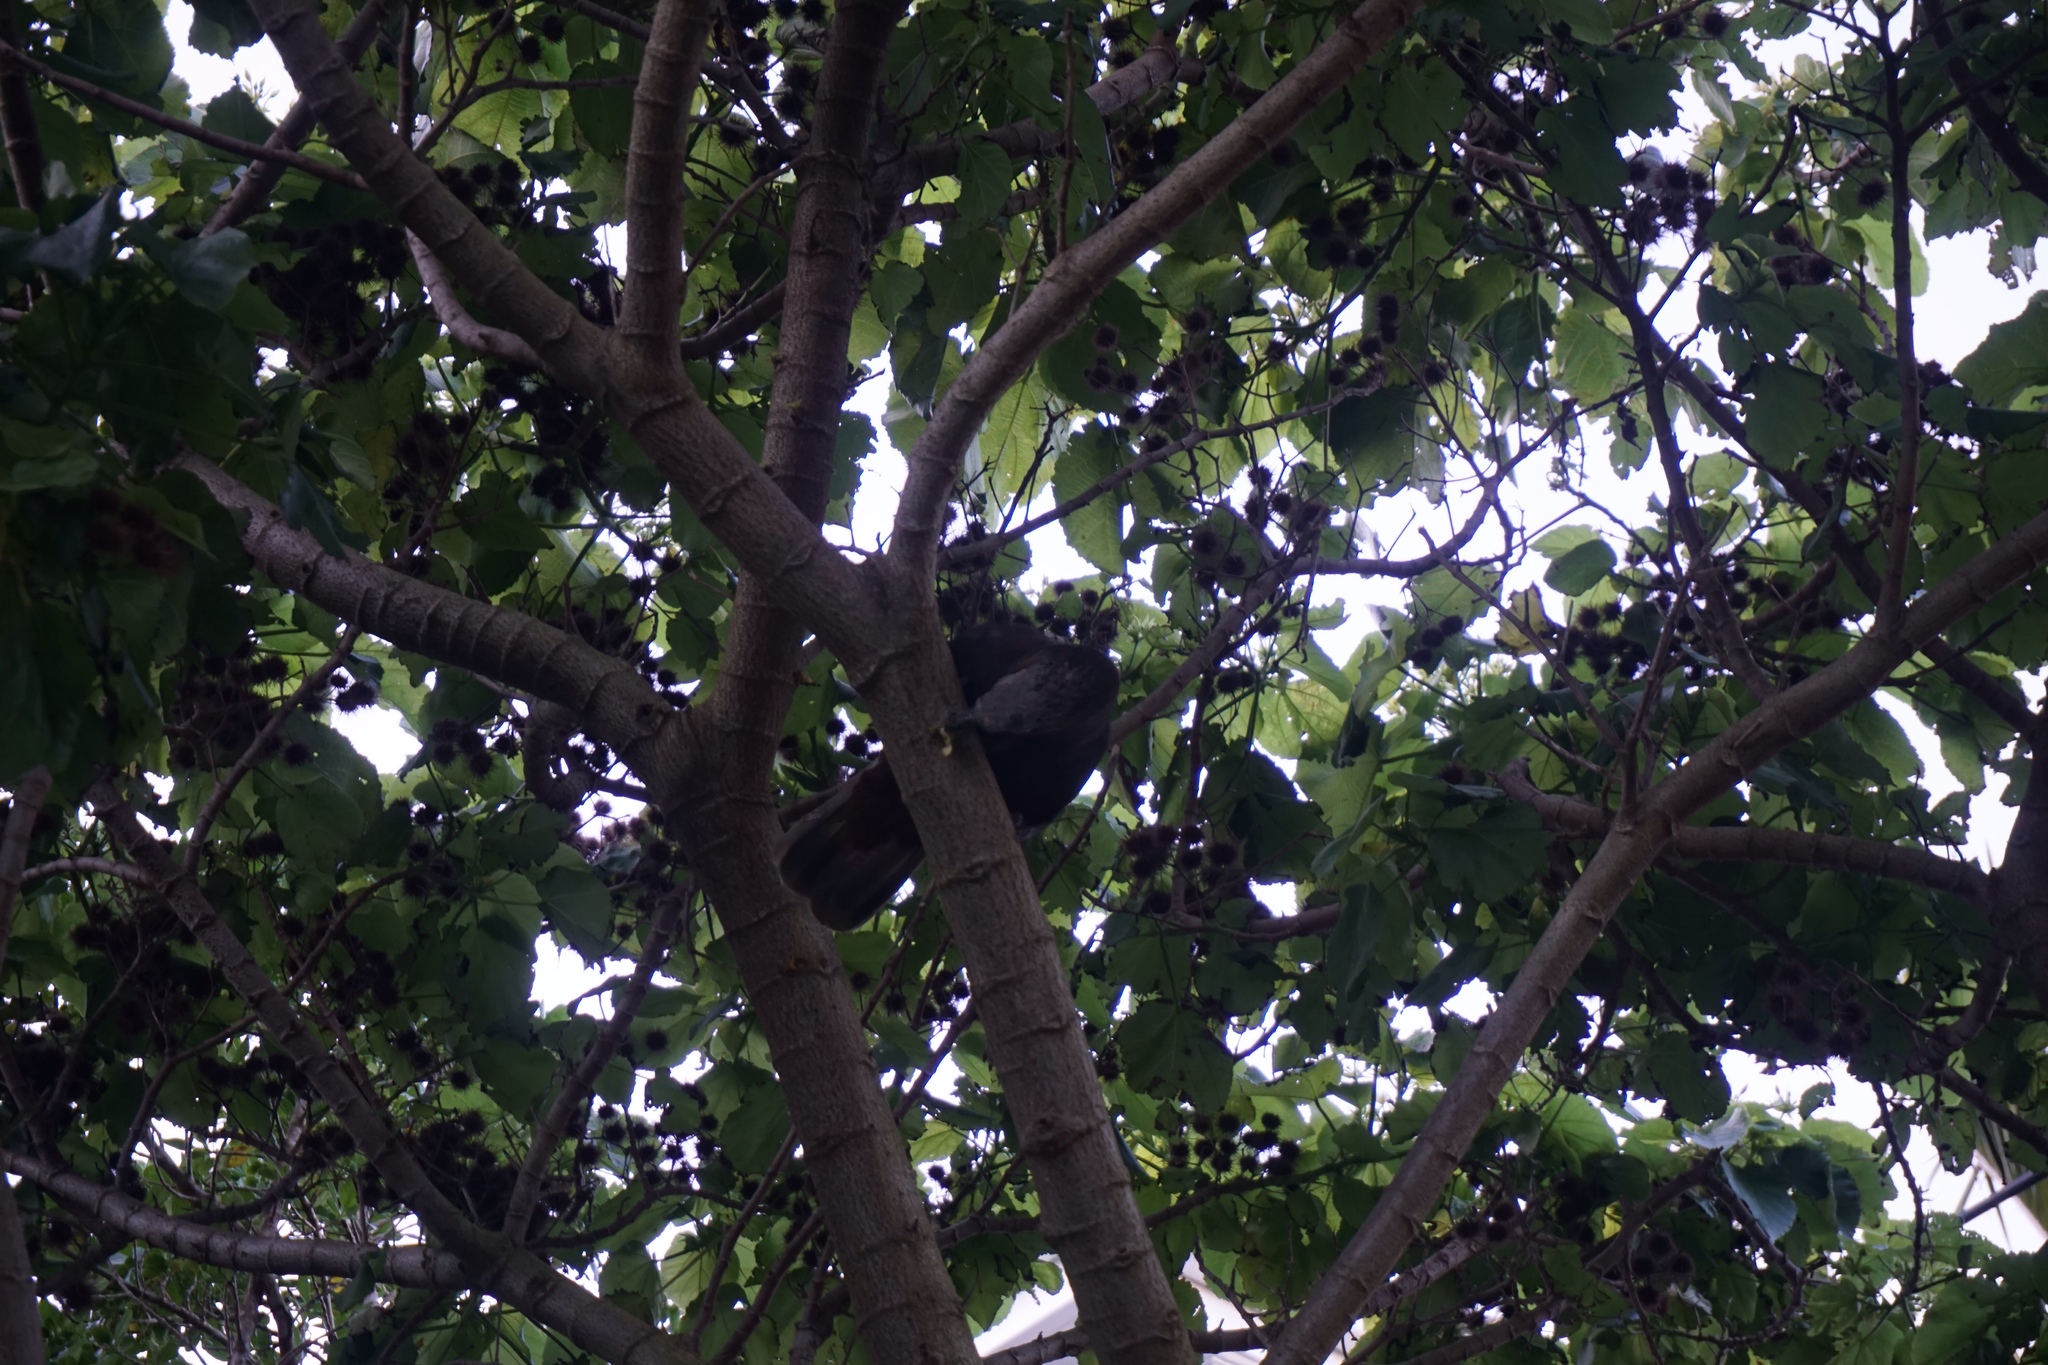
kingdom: Animalia
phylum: Chordata
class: Aves
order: Psittaciformes
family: Psittacidae
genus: Nestor
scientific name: Nestor meridionalis
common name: New zealand kaka
